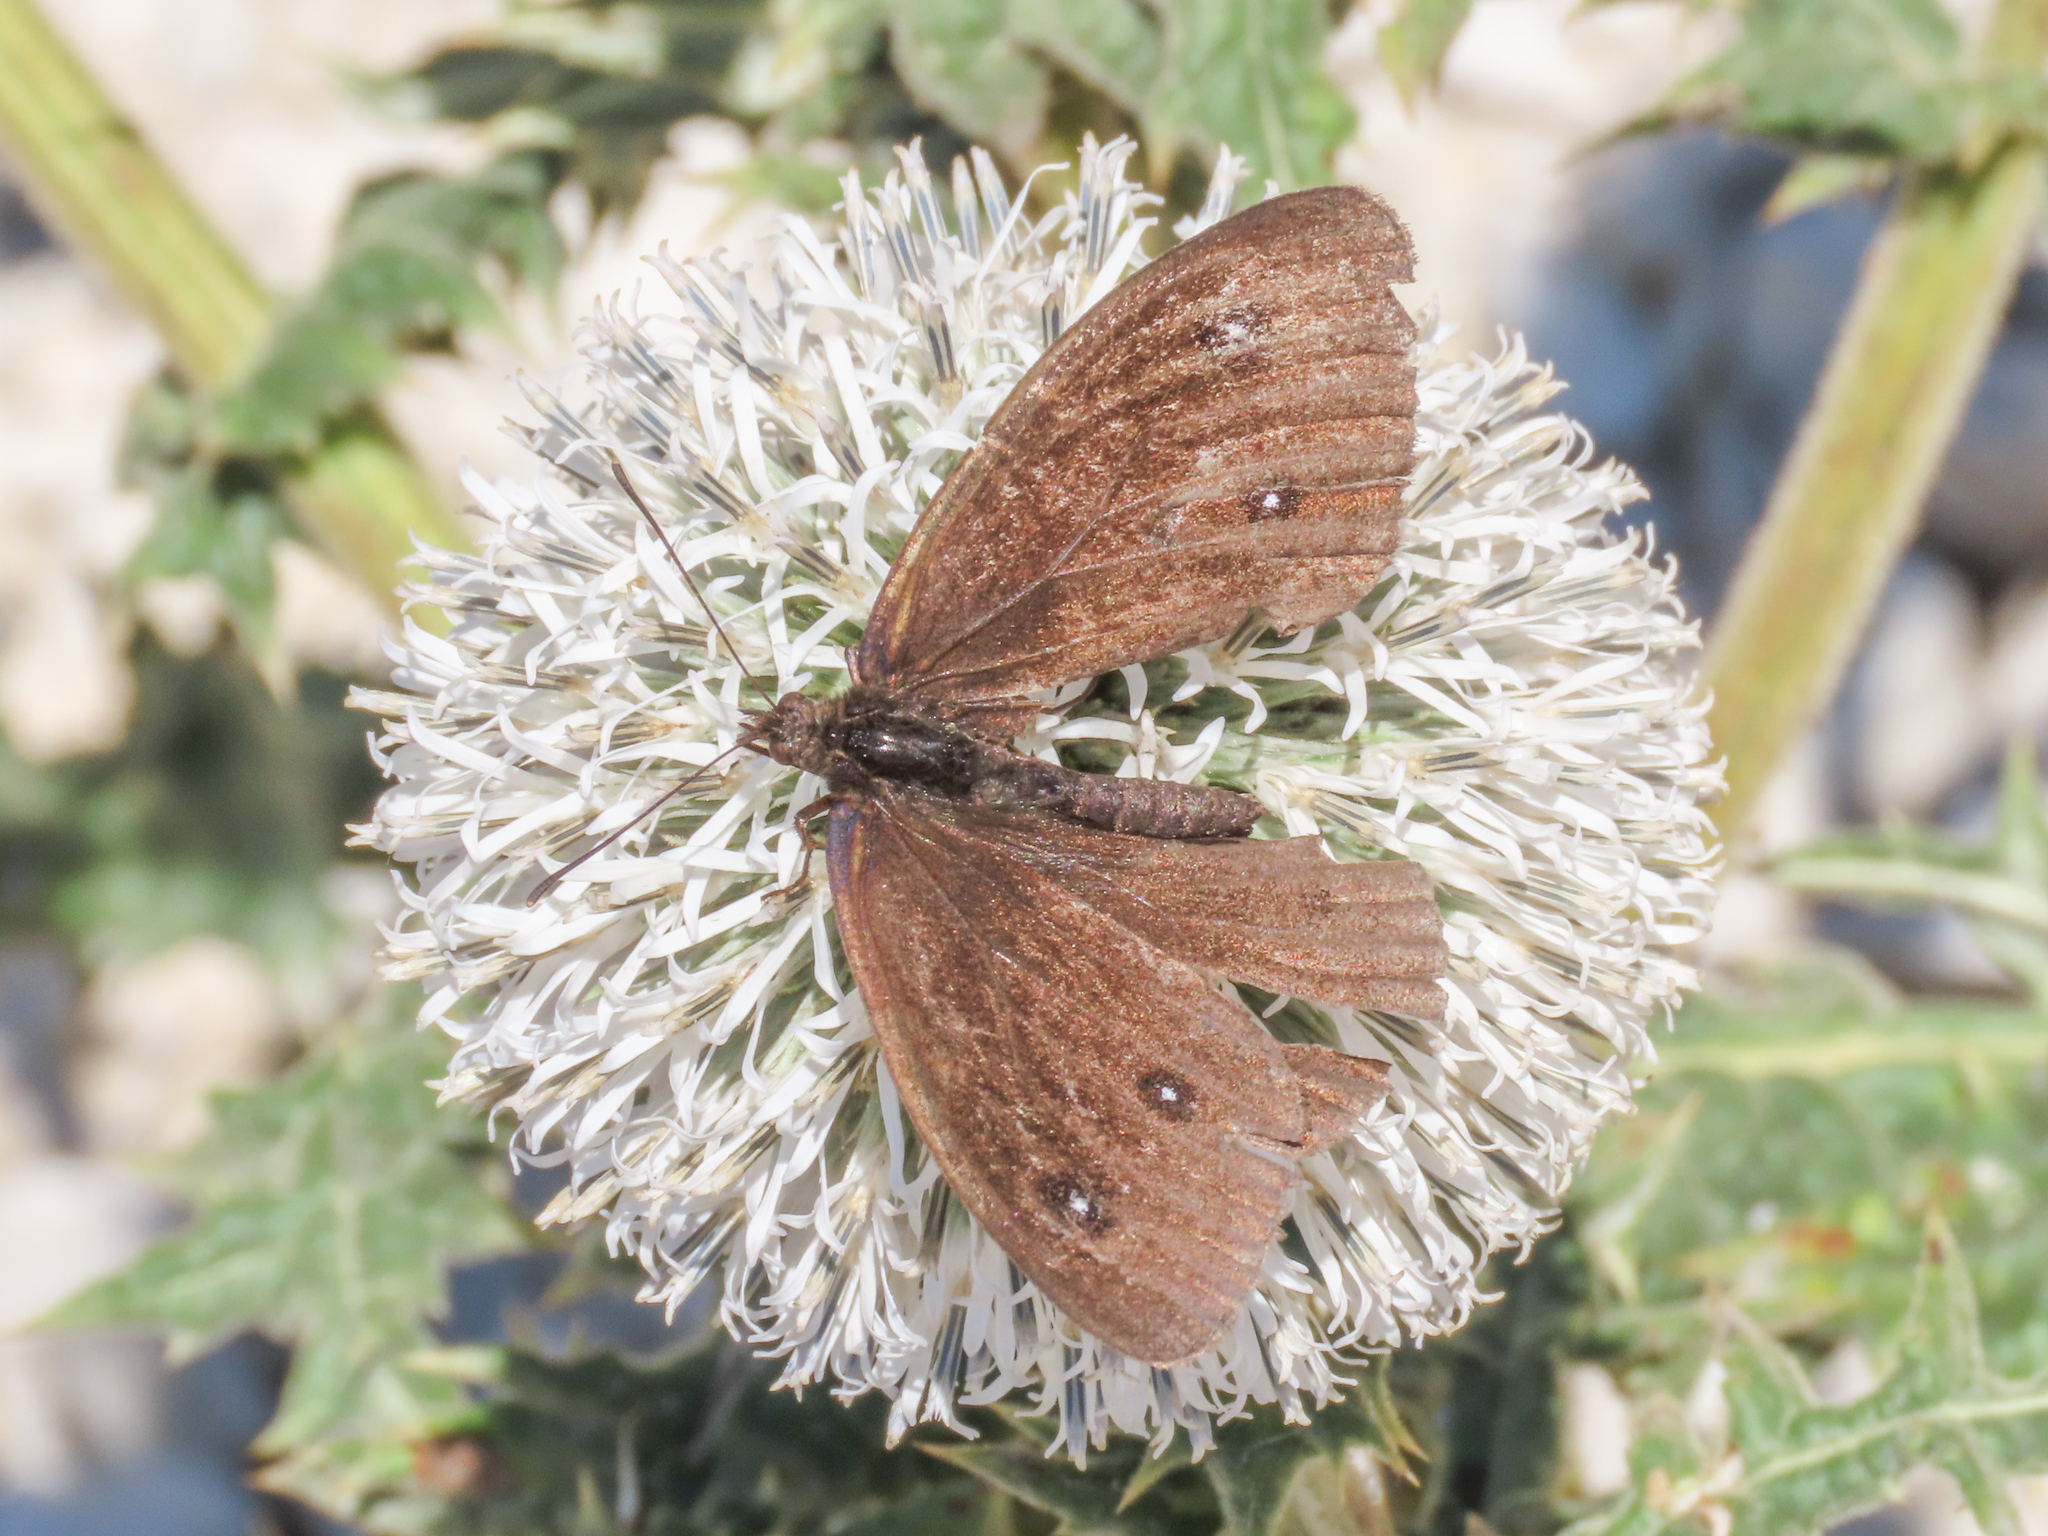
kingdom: Animalia
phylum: Arthropoda
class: Insecta
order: Lepidoptera
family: Nymphalidae
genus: Satyrus
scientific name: Satyrus ferula
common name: Great sooty satyr
